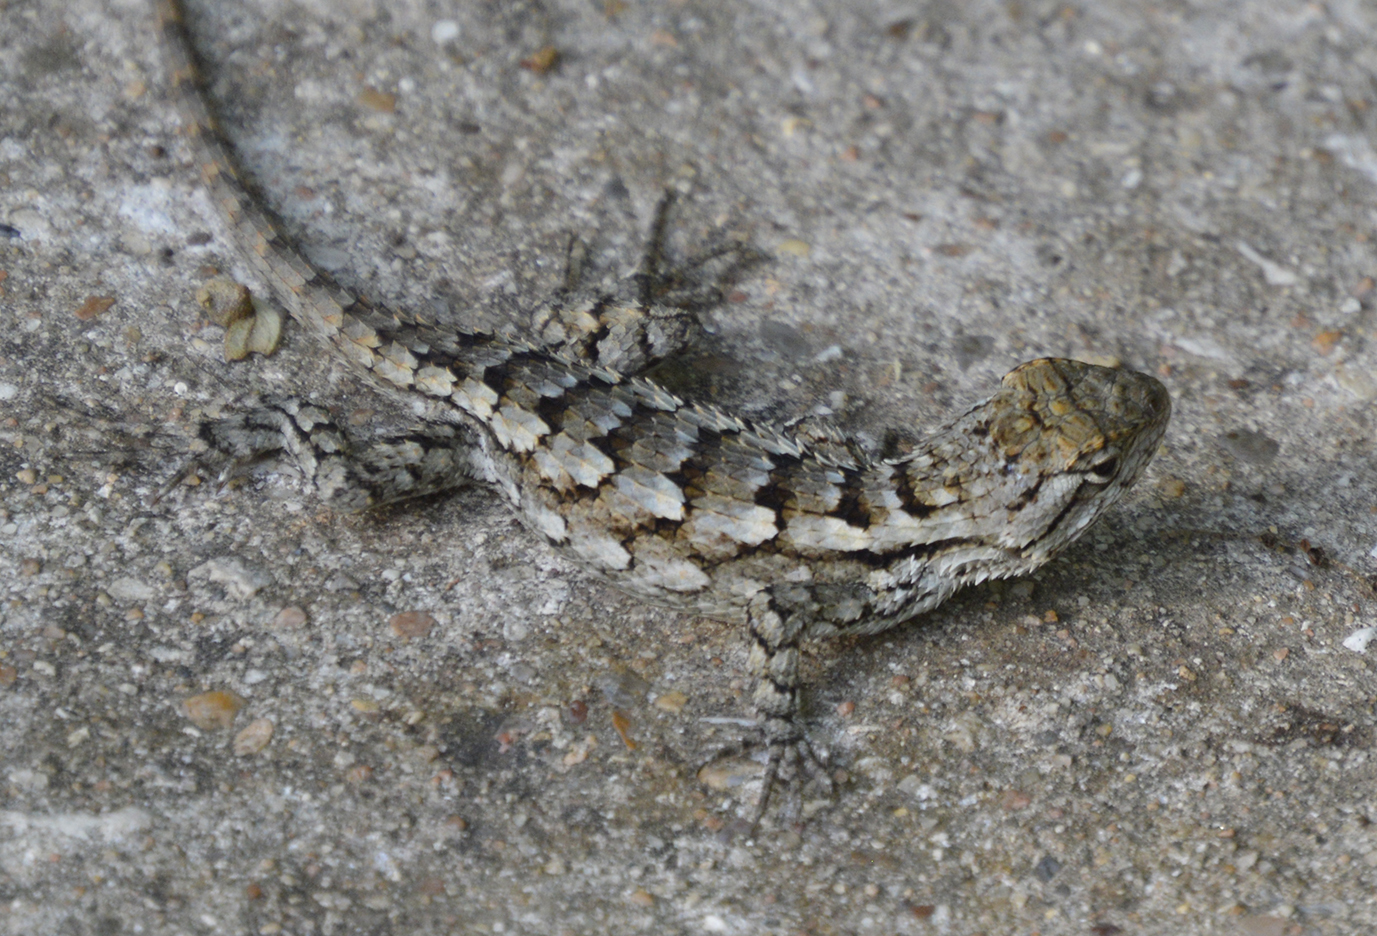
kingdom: Animalia
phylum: Chordata
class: Squamata
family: Phrynosomatidae
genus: Sceloporus
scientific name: Sceloporus olivaceus
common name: Texas spiny lizard
